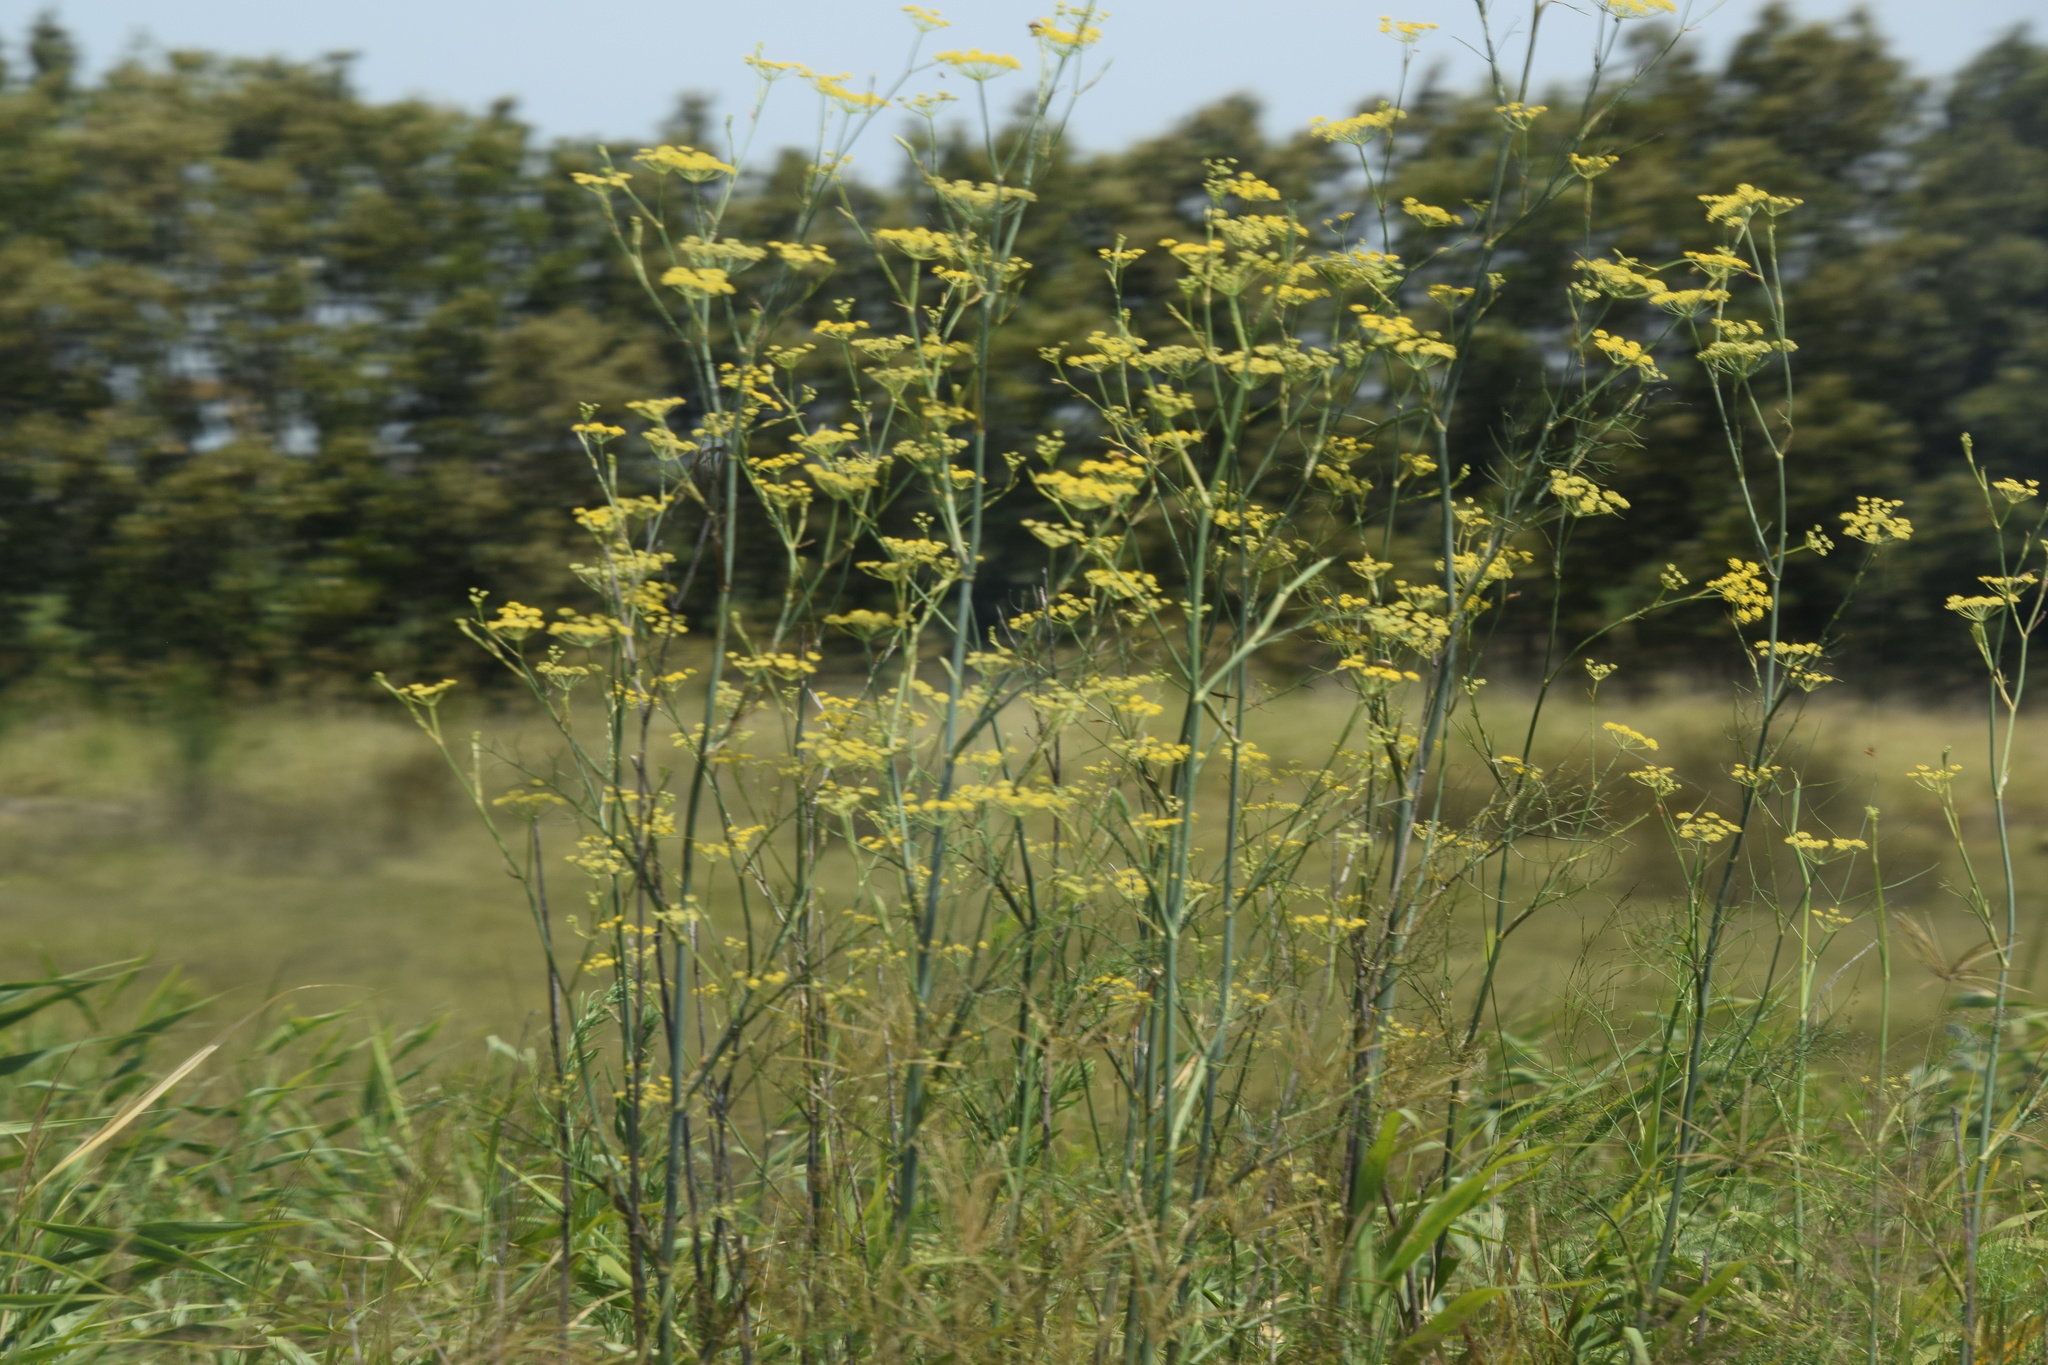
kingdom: Plantae
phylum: Tracheophyta
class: Magnoliopsida
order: Apiales
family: Apiaceae
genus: Foeniculum
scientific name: Foeniculum vulgare
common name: Fennel
